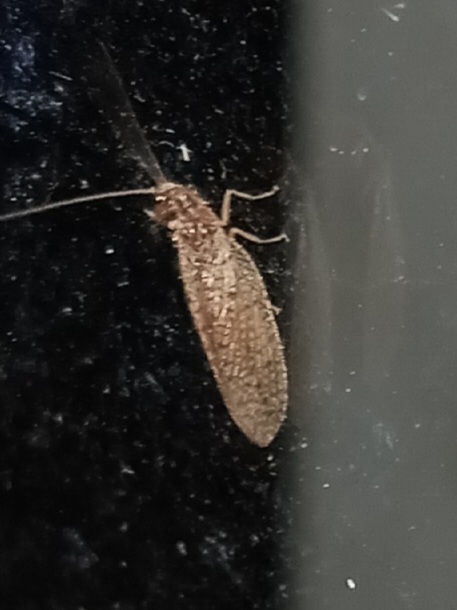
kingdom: Animalia
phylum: Arthropoda
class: Insecta
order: Neuroptera
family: Hemerobiidae
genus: Micromus
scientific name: Micromus subanticus
